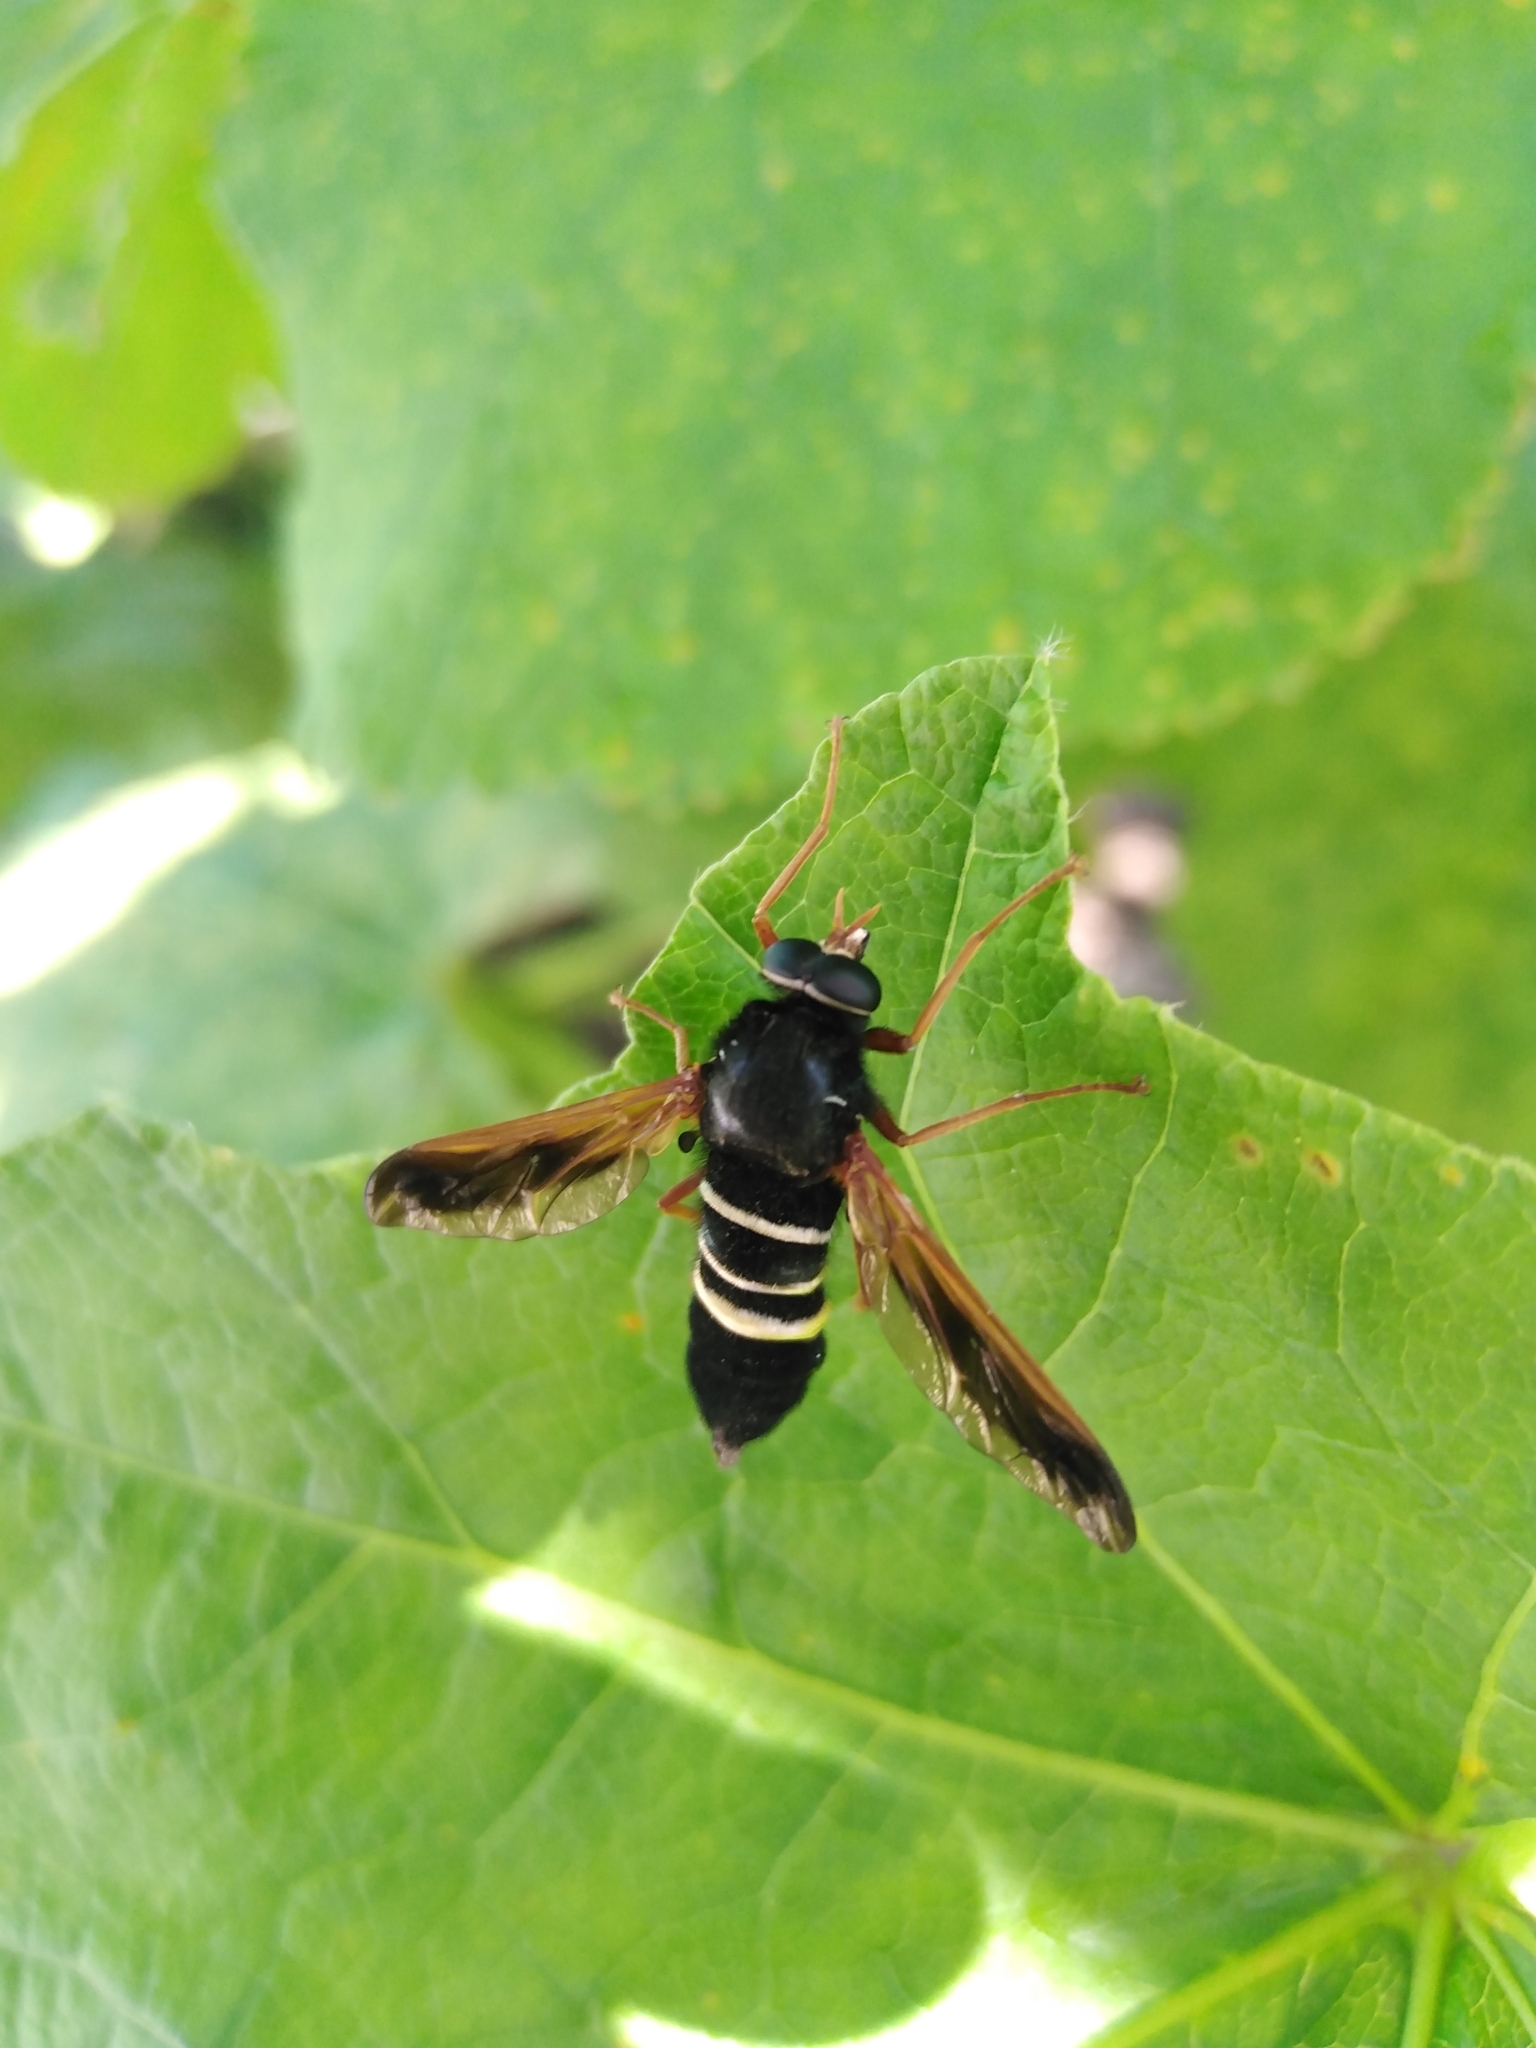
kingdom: Animalia
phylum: Arthropoda
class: Insecta
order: Diptera
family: Heterostomidae
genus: Heterostomus
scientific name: Heterostomus curvipalpis
